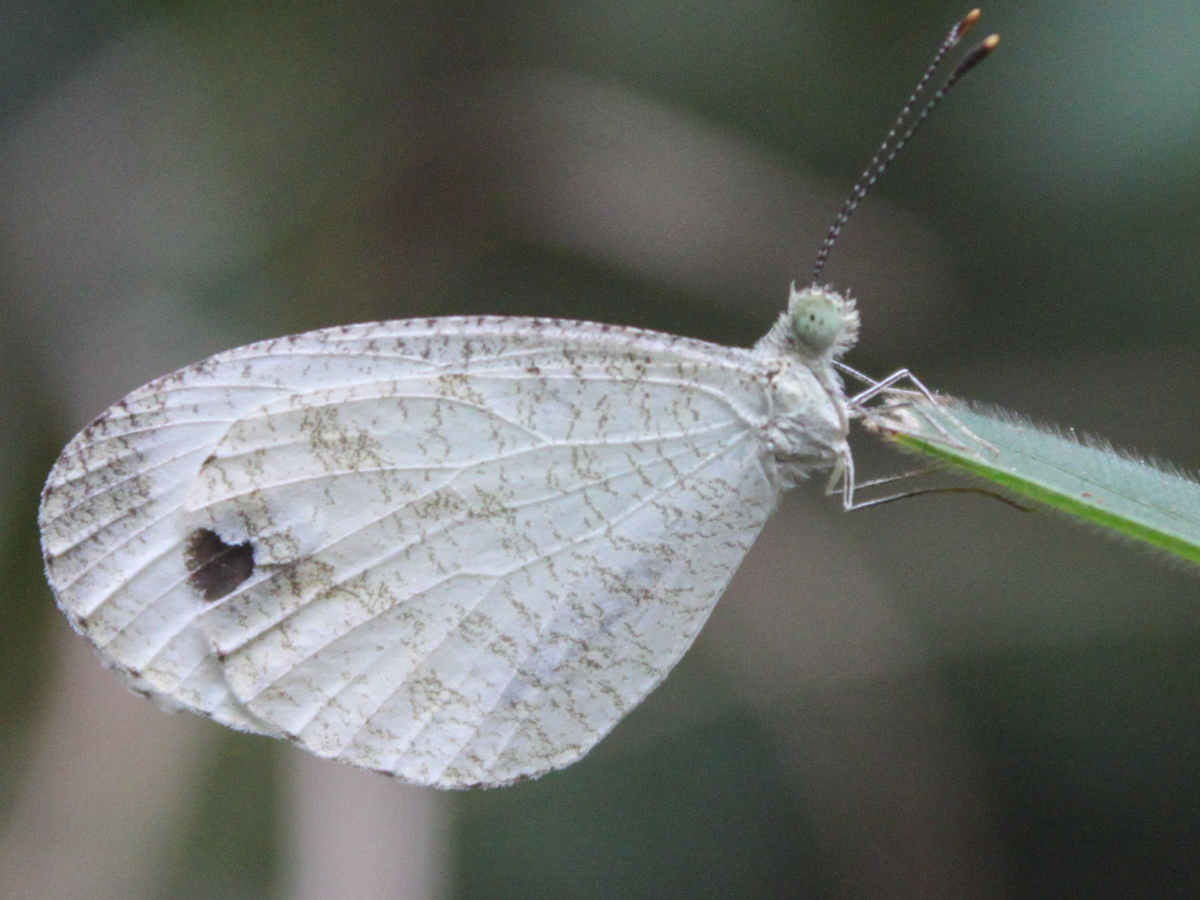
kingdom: Animalia
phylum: Arthropoda
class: Insecta
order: Lepidoptera
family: Pieridae
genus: Leptosia
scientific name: Leptosia nina
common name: Psyche
